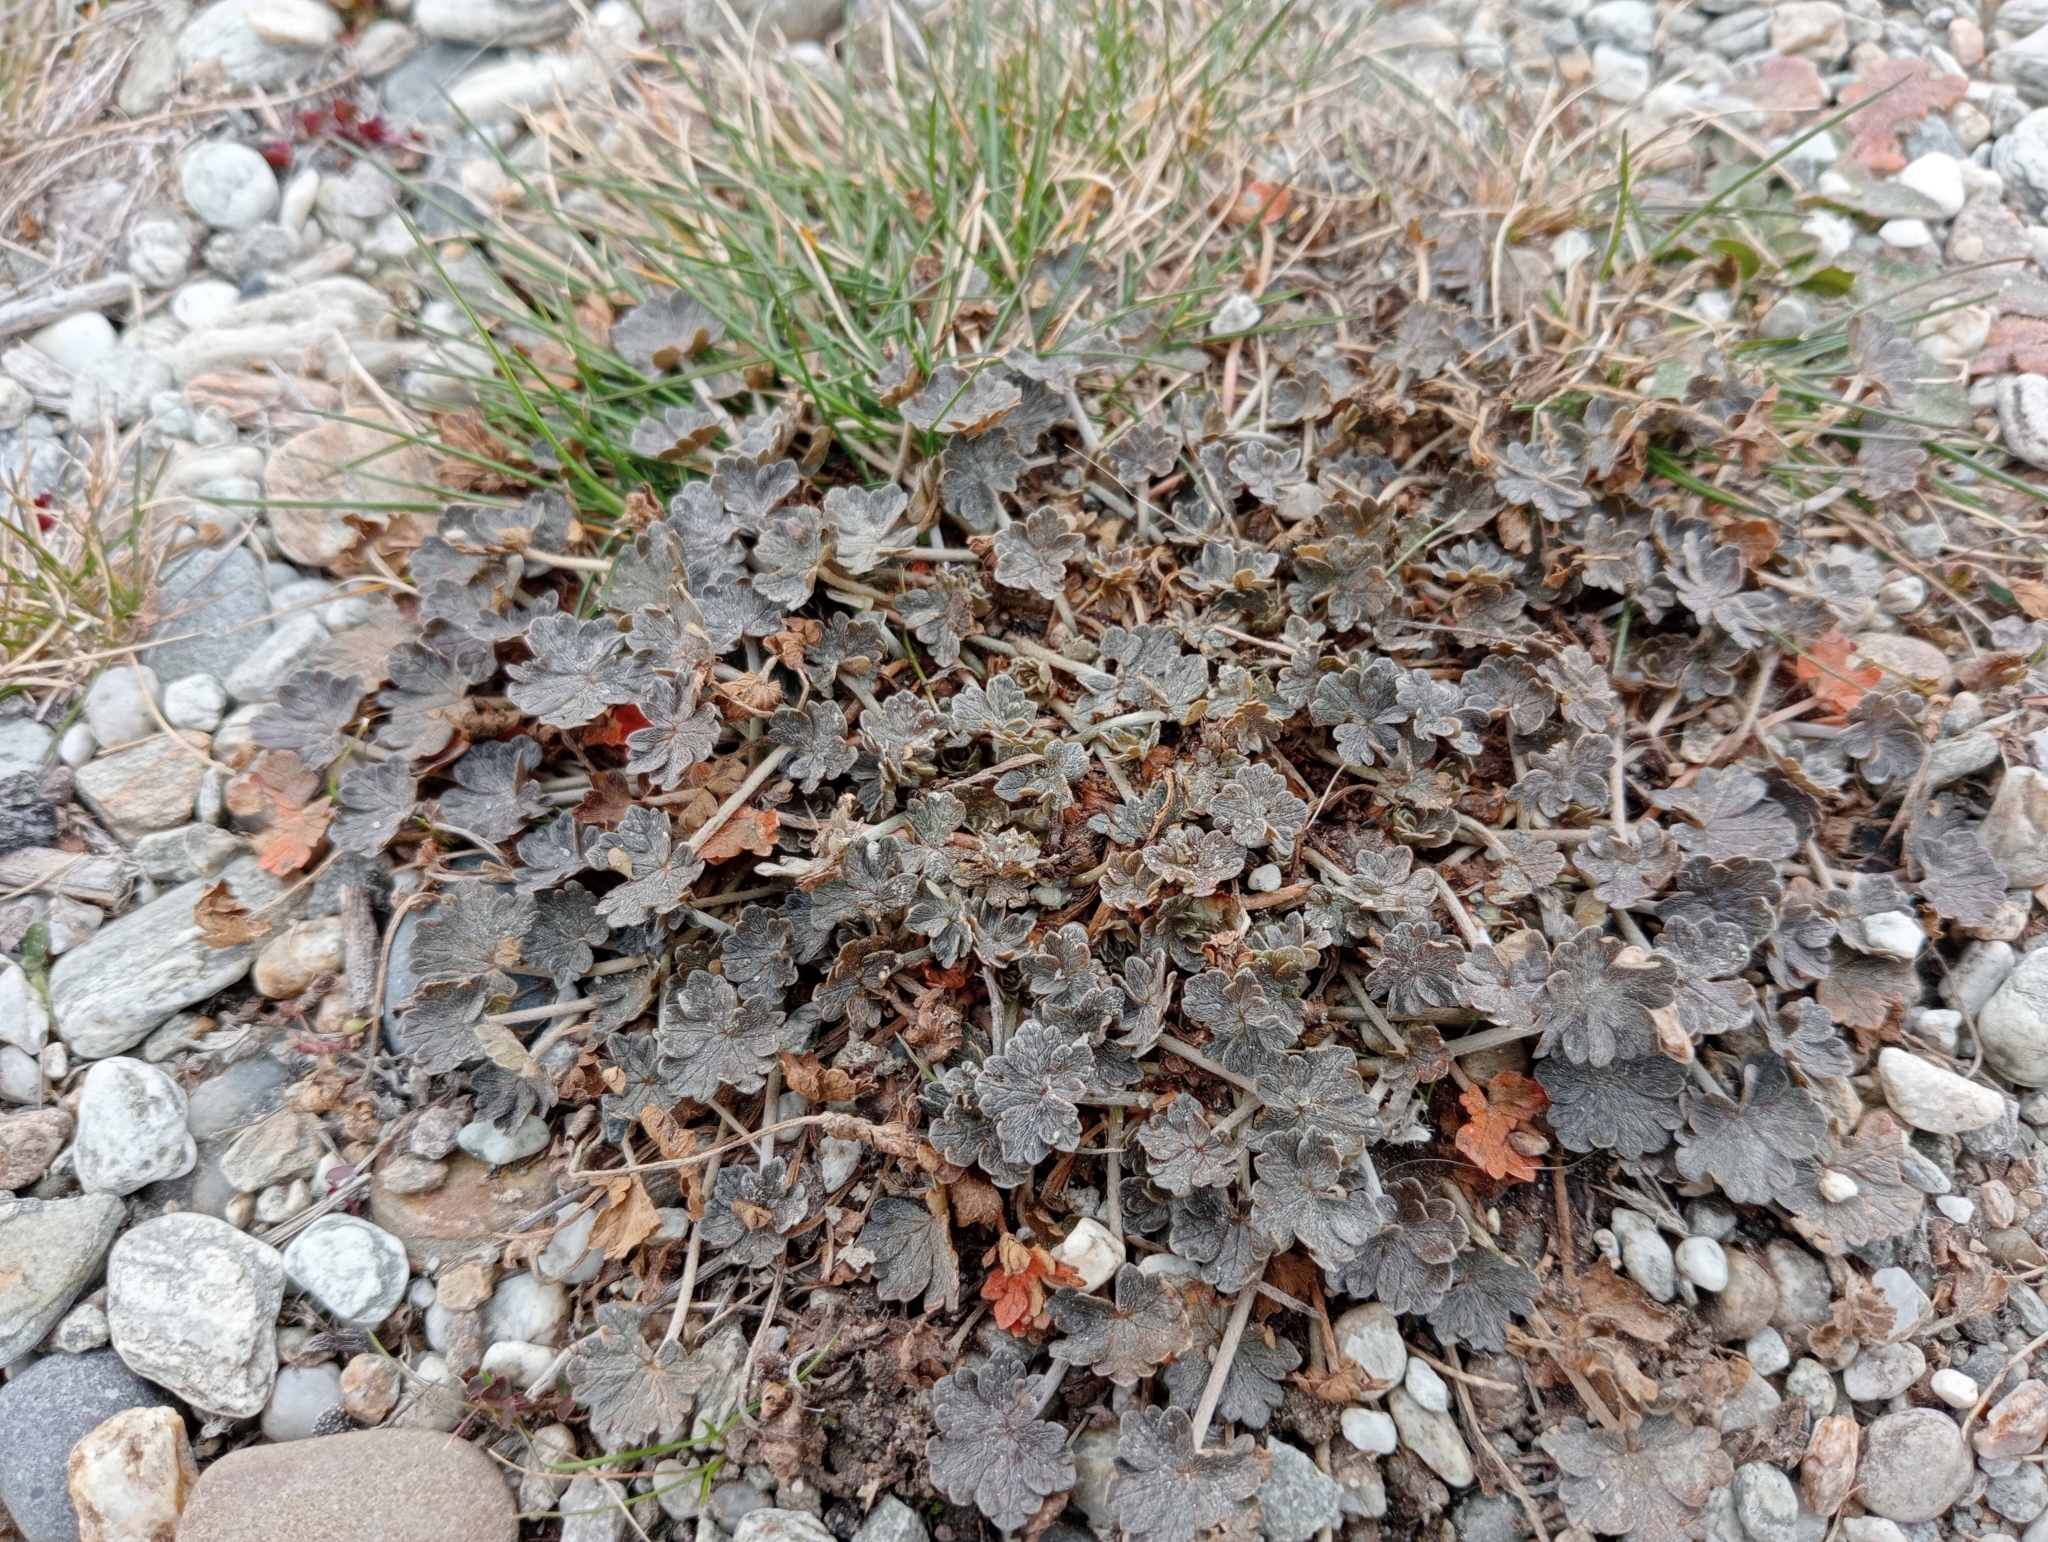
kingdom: Plantae
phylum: Tracheophyta
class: Magnoliopsida
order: Geraniales
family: Geraniaceae
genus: Geranium
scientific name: Geranium brevicaule
